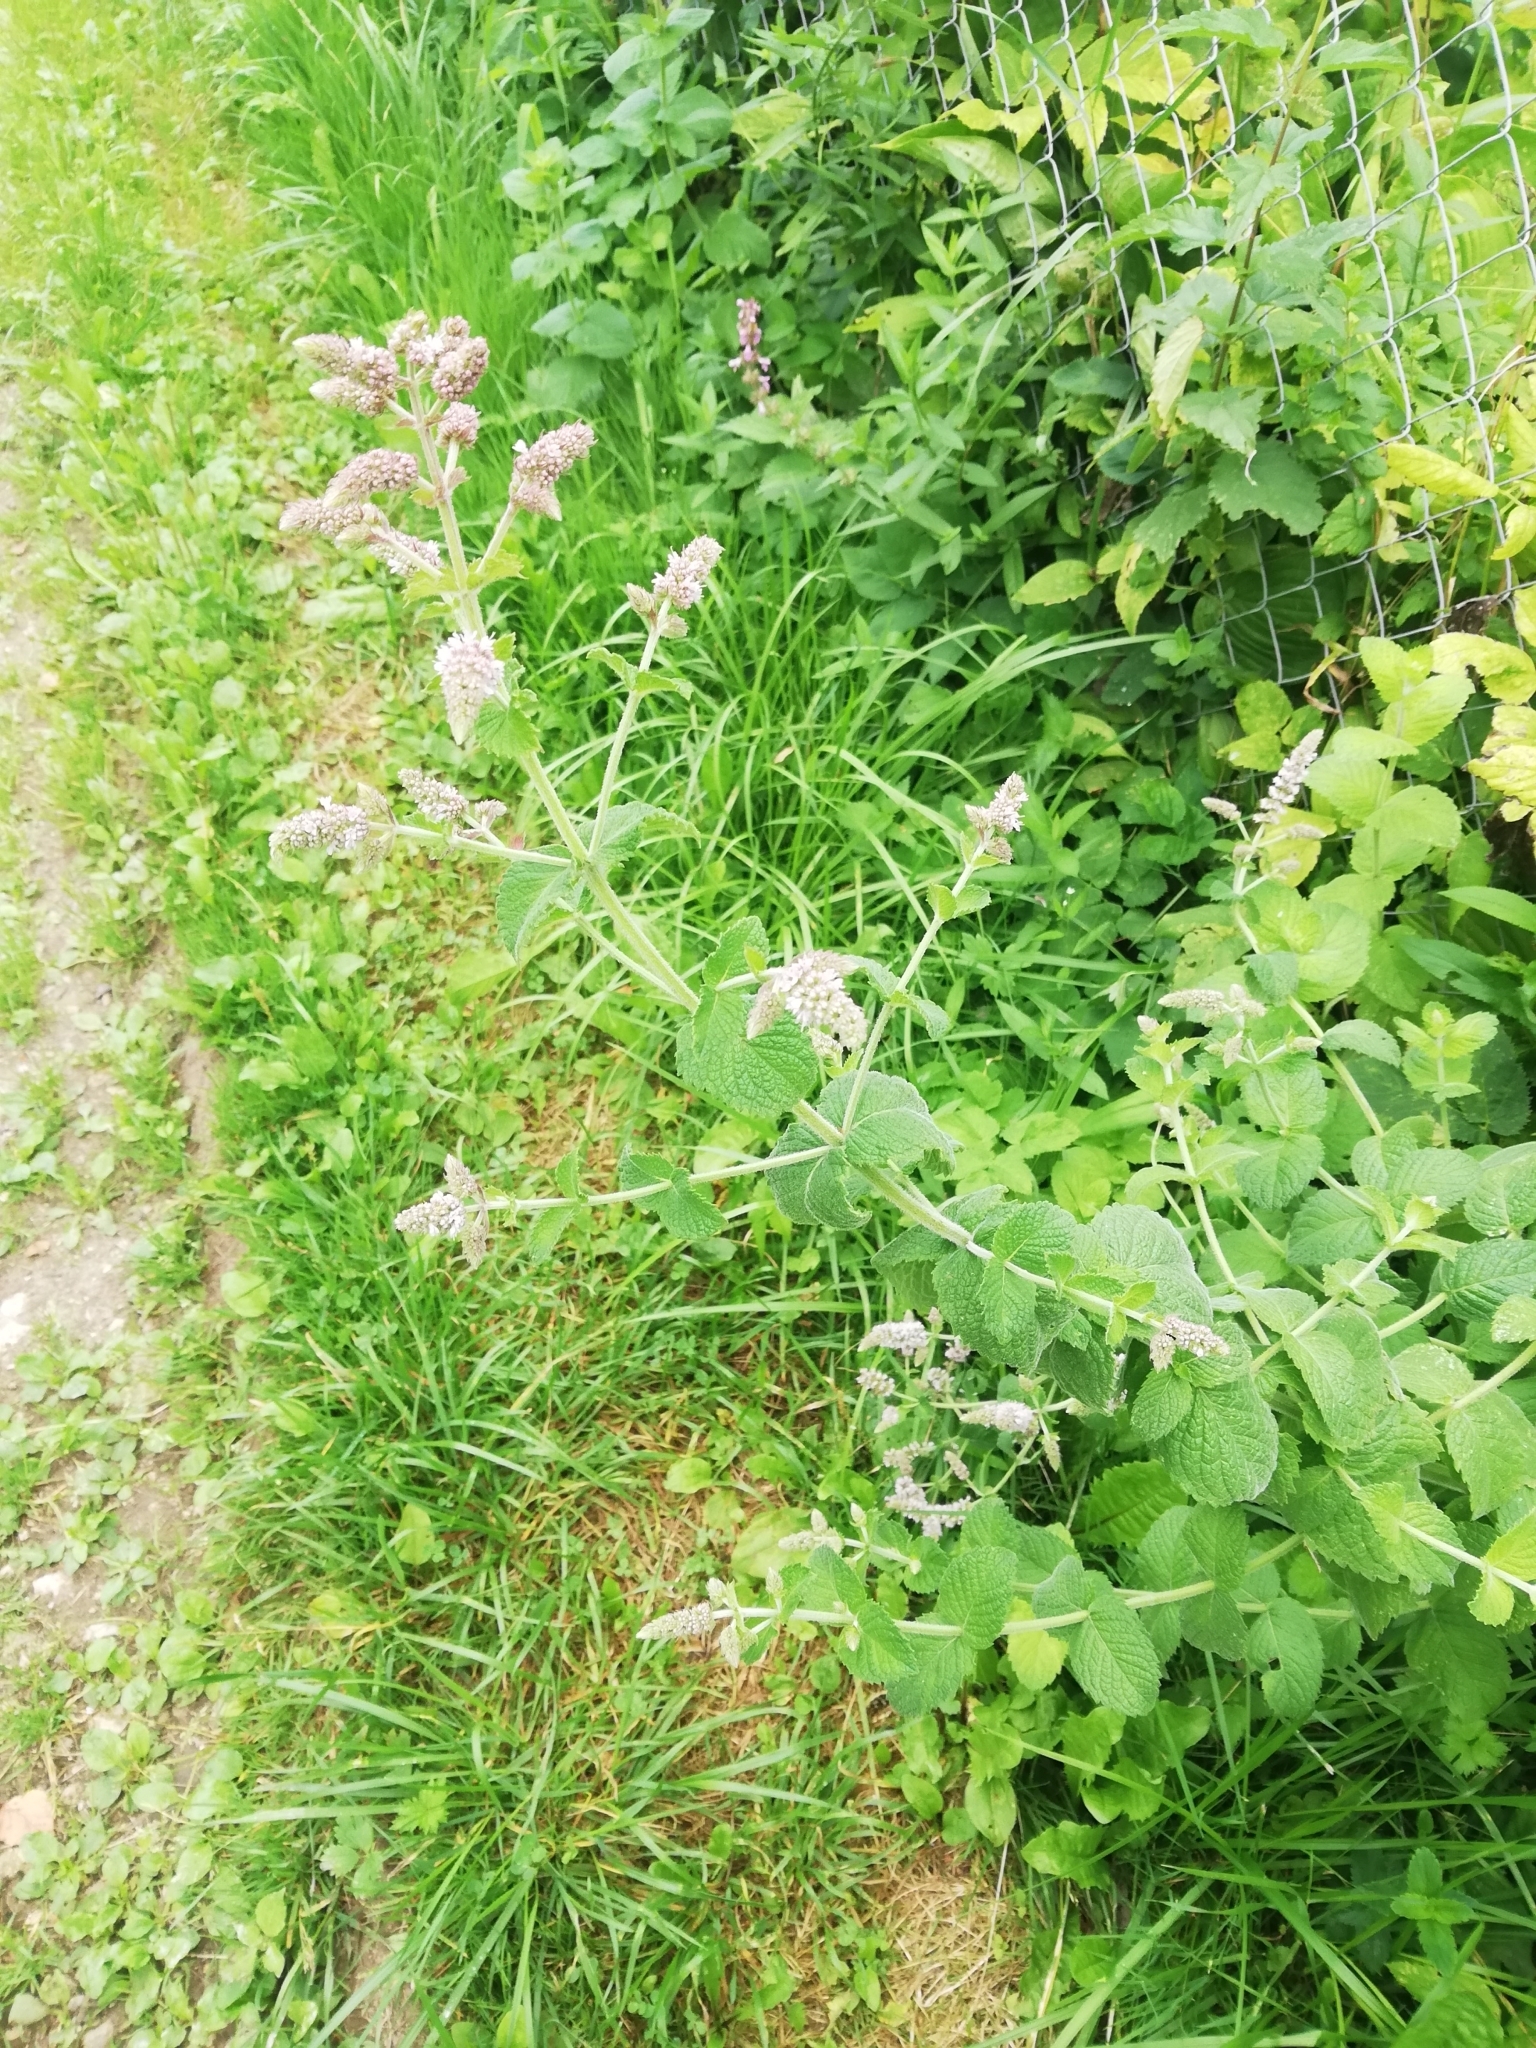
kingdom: Plantae
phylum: Tracheophyta
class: Magnoliopsida
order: Lamiales
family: Lamiaceae
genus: Mentha
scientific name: Mentha suaveolens
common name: Apple mint
